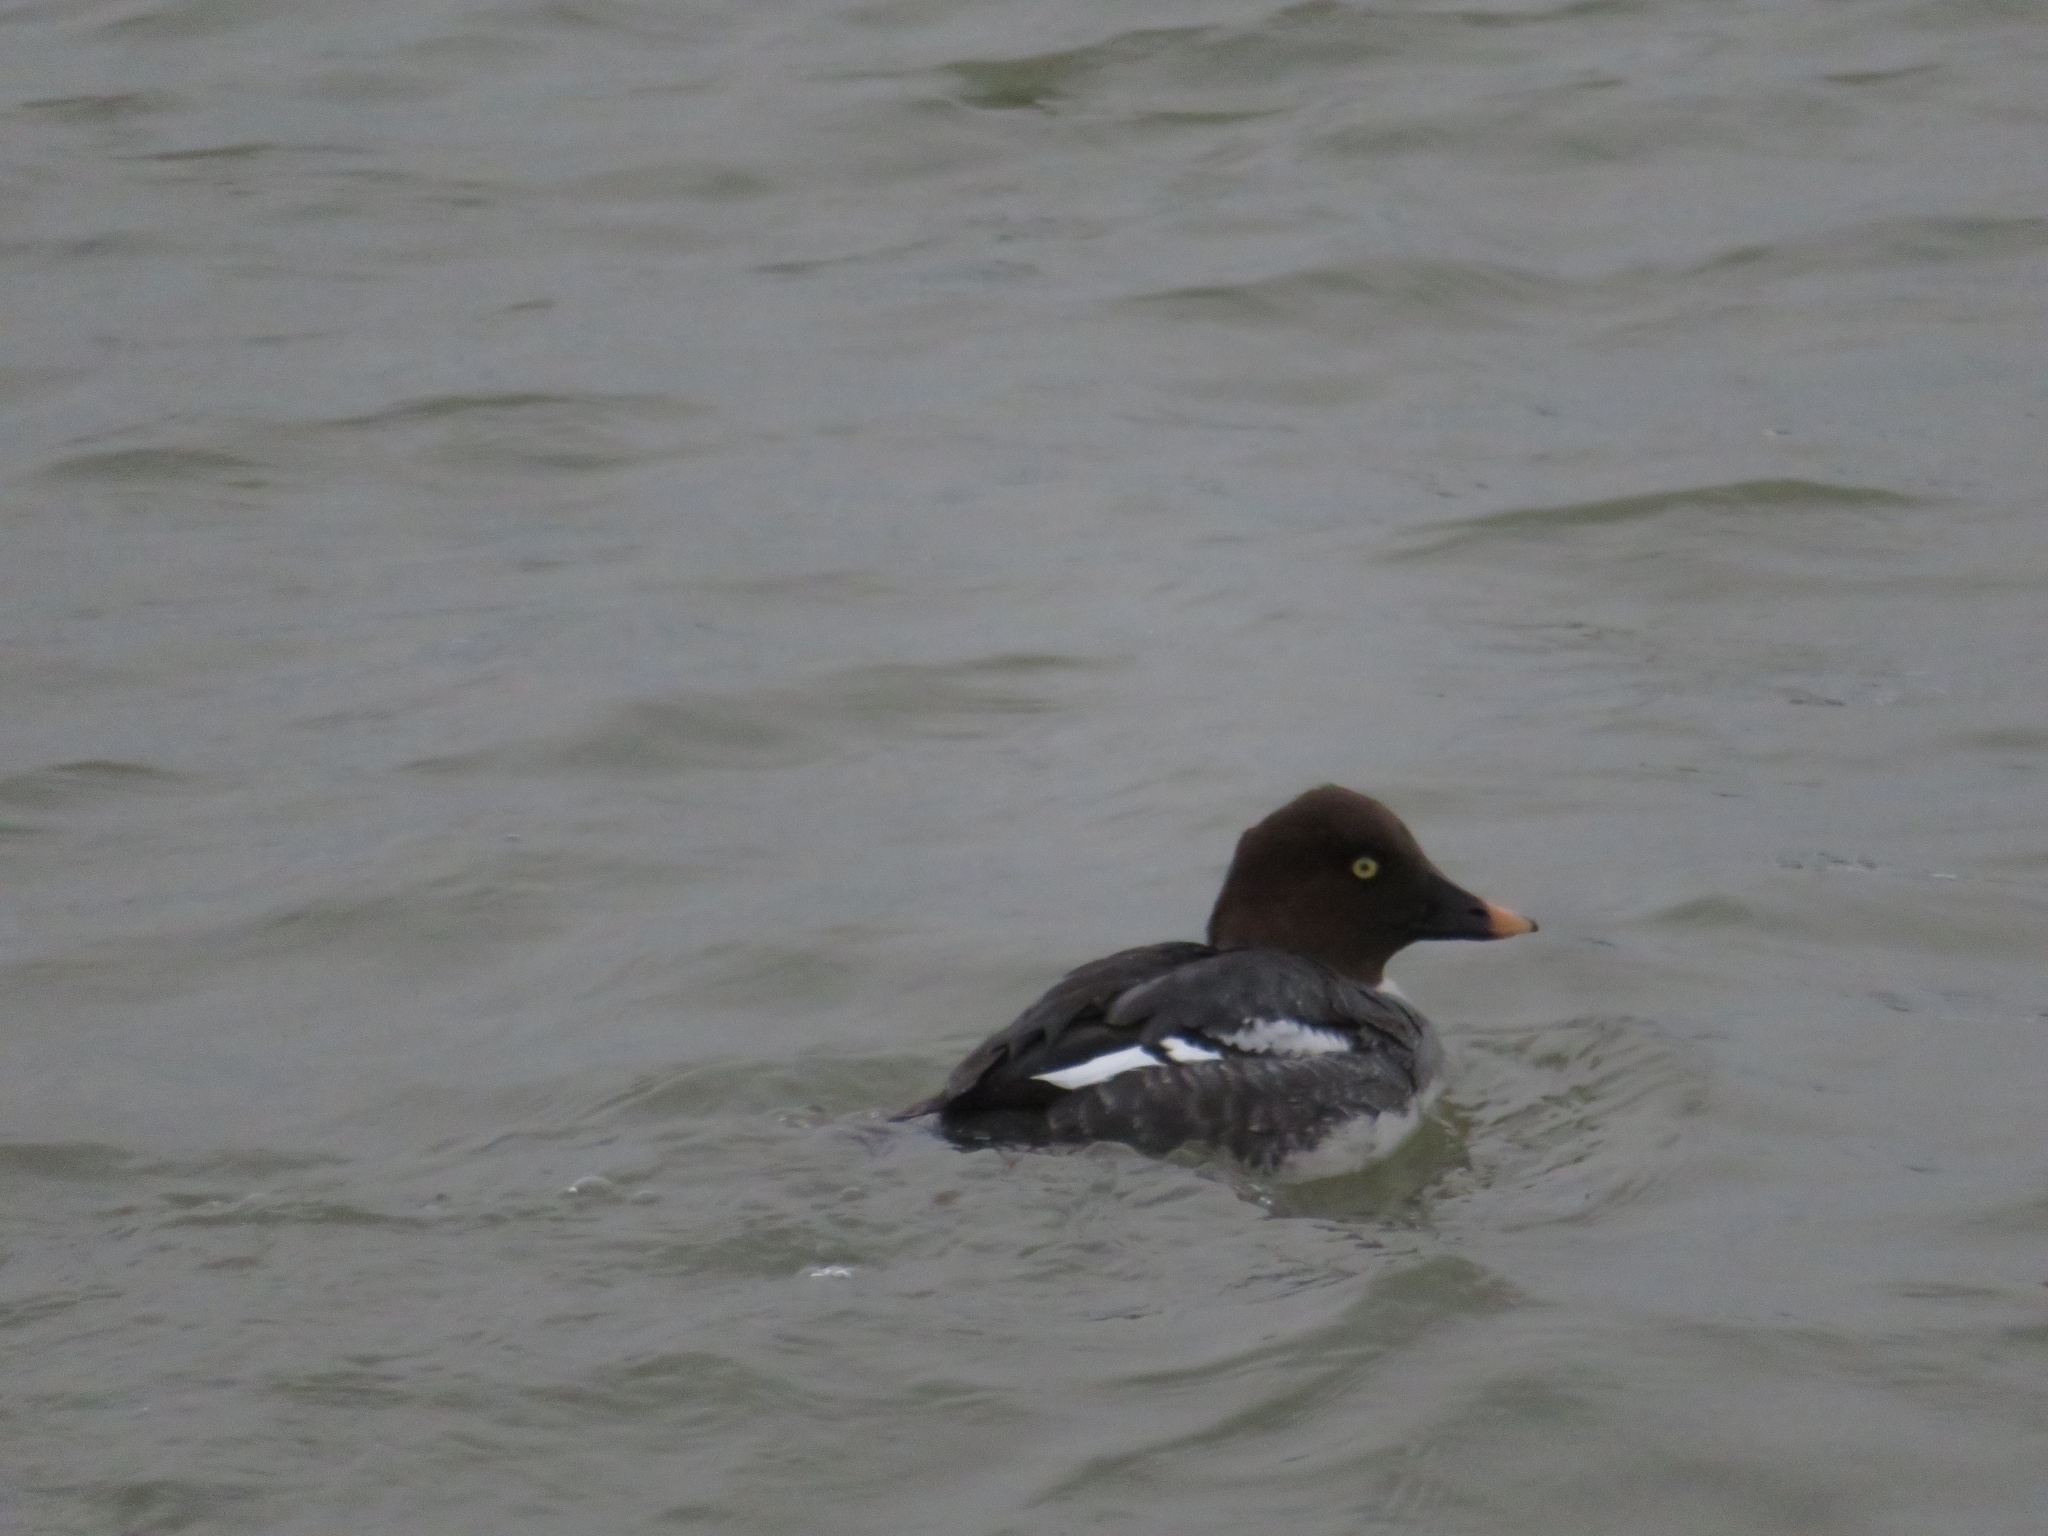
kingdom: Animalia
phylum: Chordata
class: Aves
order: Anseriformes
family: Anatidae
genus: Bucephala
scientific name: Bucephala clangula
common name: Common goldeneye
